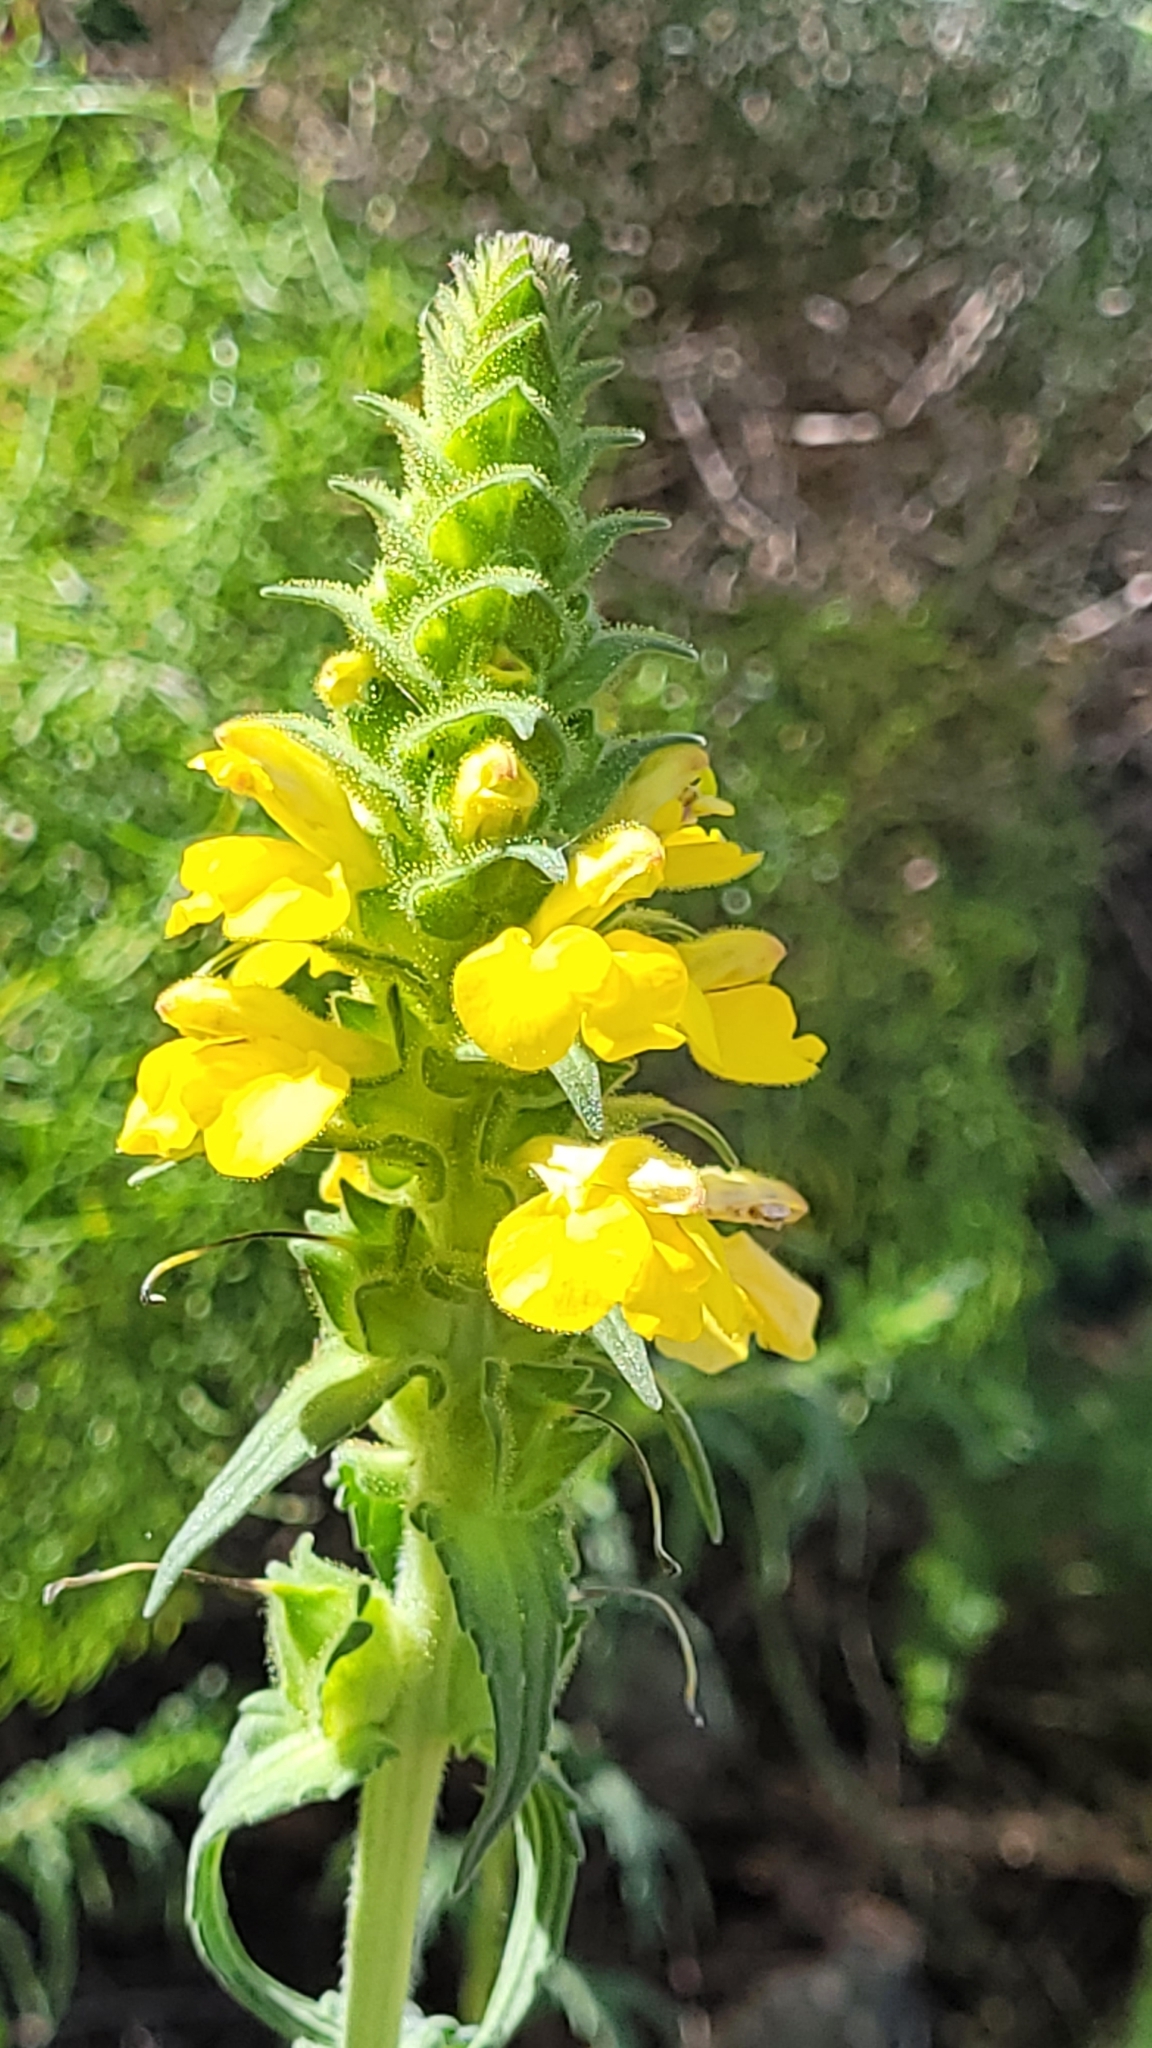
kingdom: Plantae
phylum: Tracheophyta
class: Magnoliopsida
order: Lamiales
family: Orobanchaceae
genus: Bellardia
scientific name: Bellardia trixago
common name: Mediterranean lineseed
